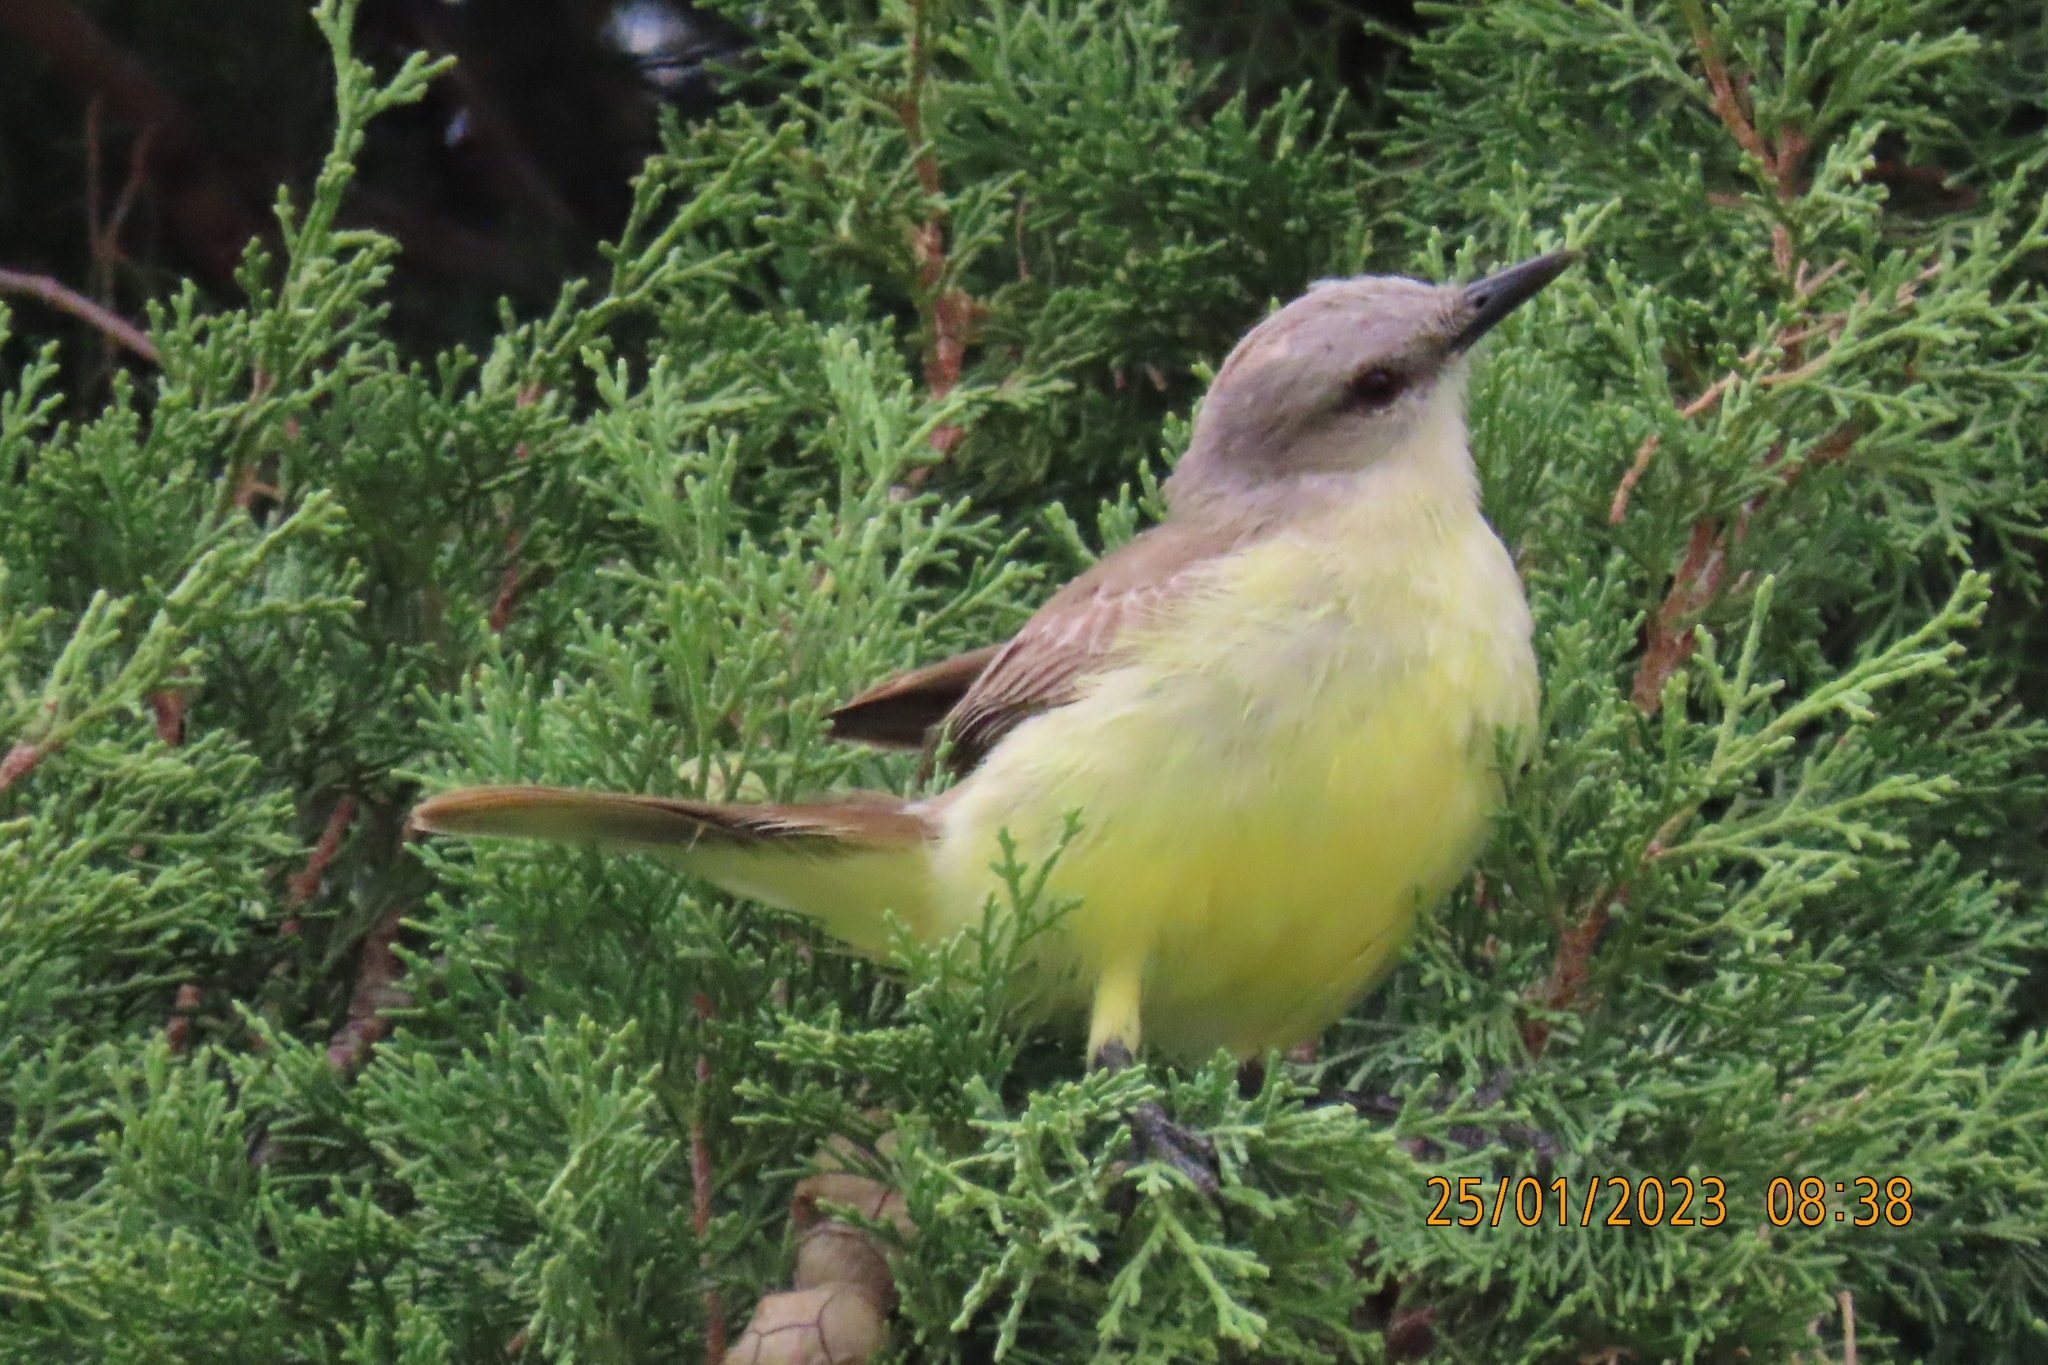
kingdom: Animalia
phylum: Chordata
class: Aves
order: Passeriformes
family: Tyrannidae
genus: Machetornis
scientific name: Machetornis rixosa
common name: Cattle tyrant
